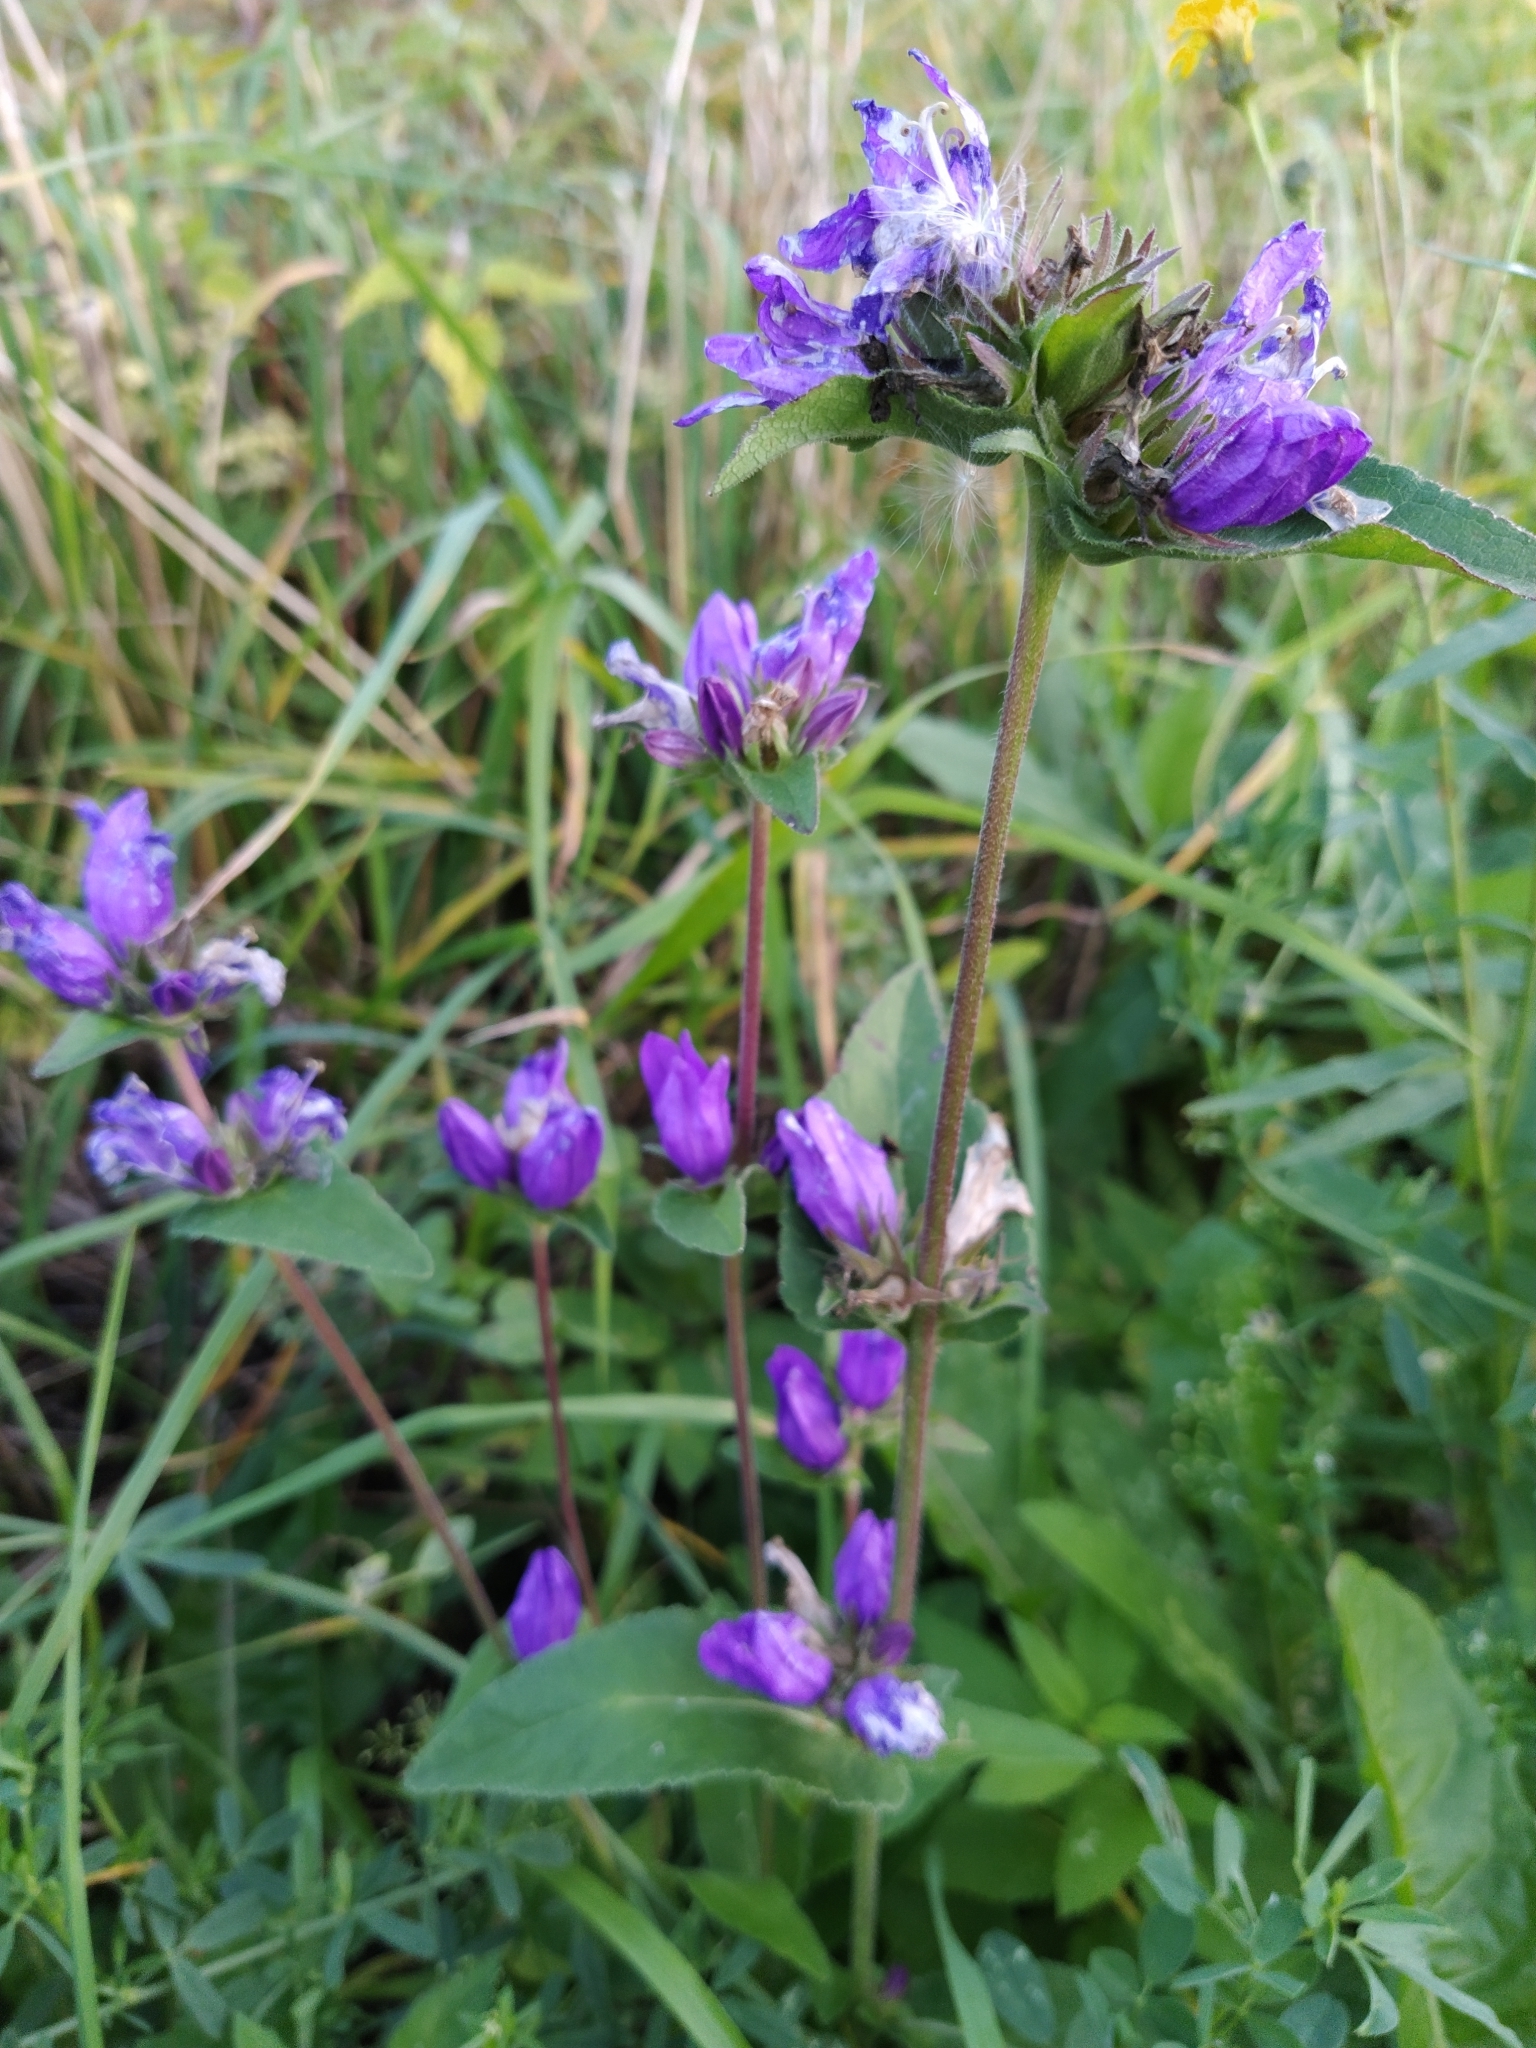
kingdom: Plantae
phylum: Tracheophyta
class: Magnoliopsida
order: Asterales
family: Campanulaceae
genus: Campanula
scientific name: Campanula glomerata
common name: Clustered bellflower
